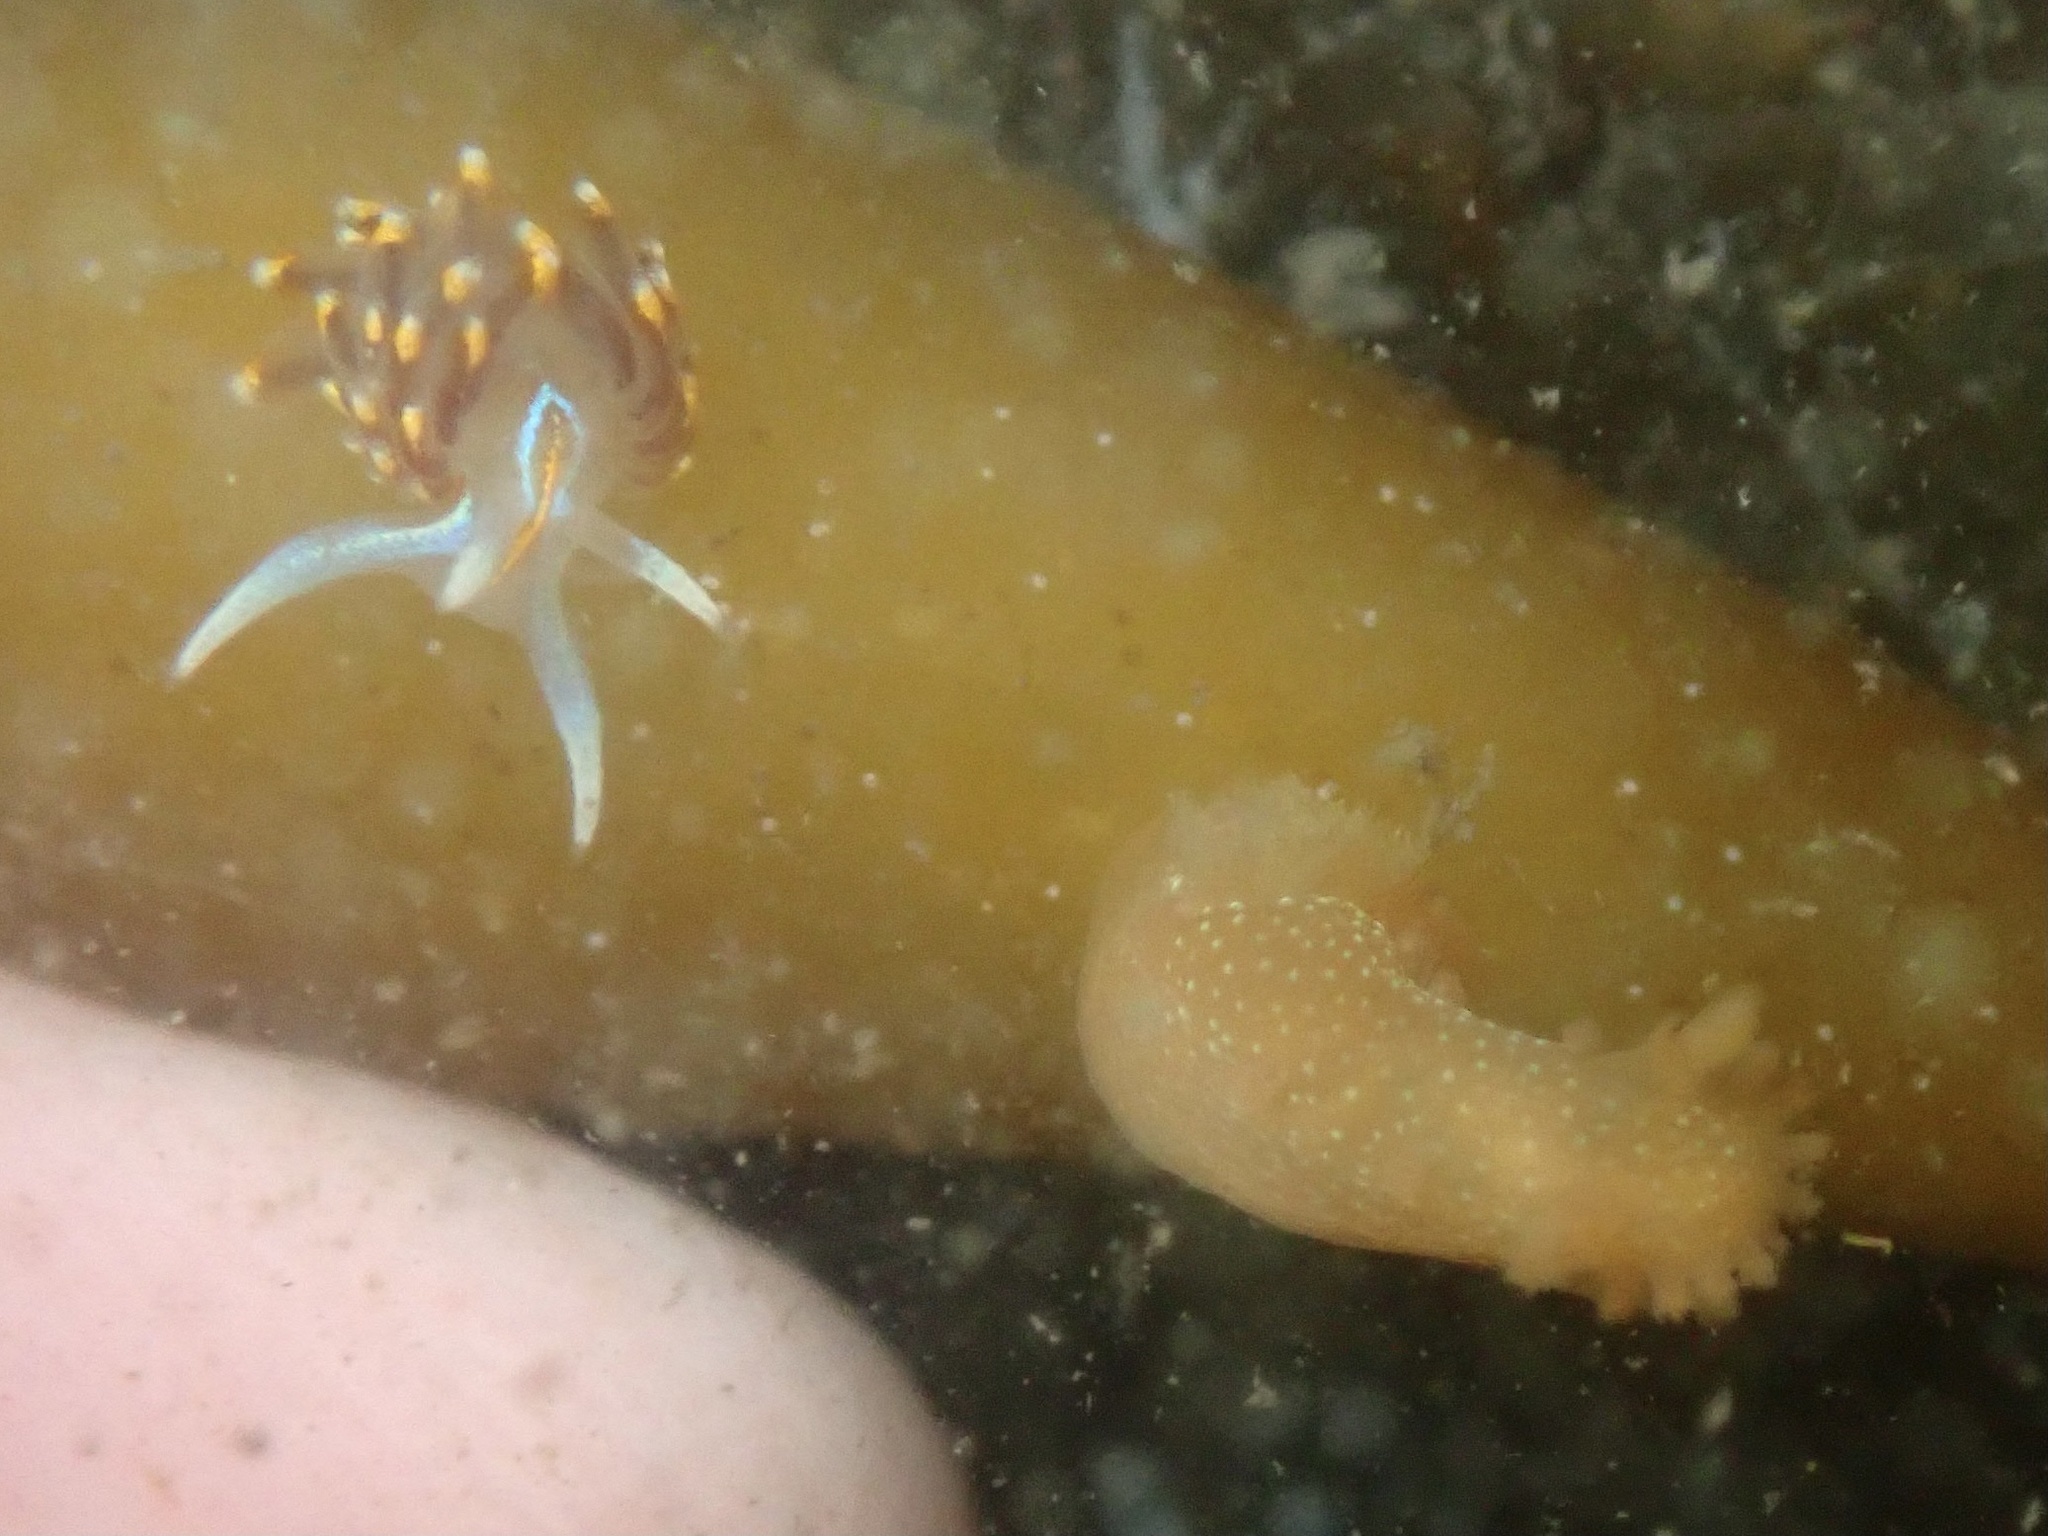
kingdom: Animalia
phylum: Mollusca
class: Gastropoda
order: Nudibranchia
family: Myrrhinidae
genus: Hermissenda
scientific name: Hermissenda opalescens
